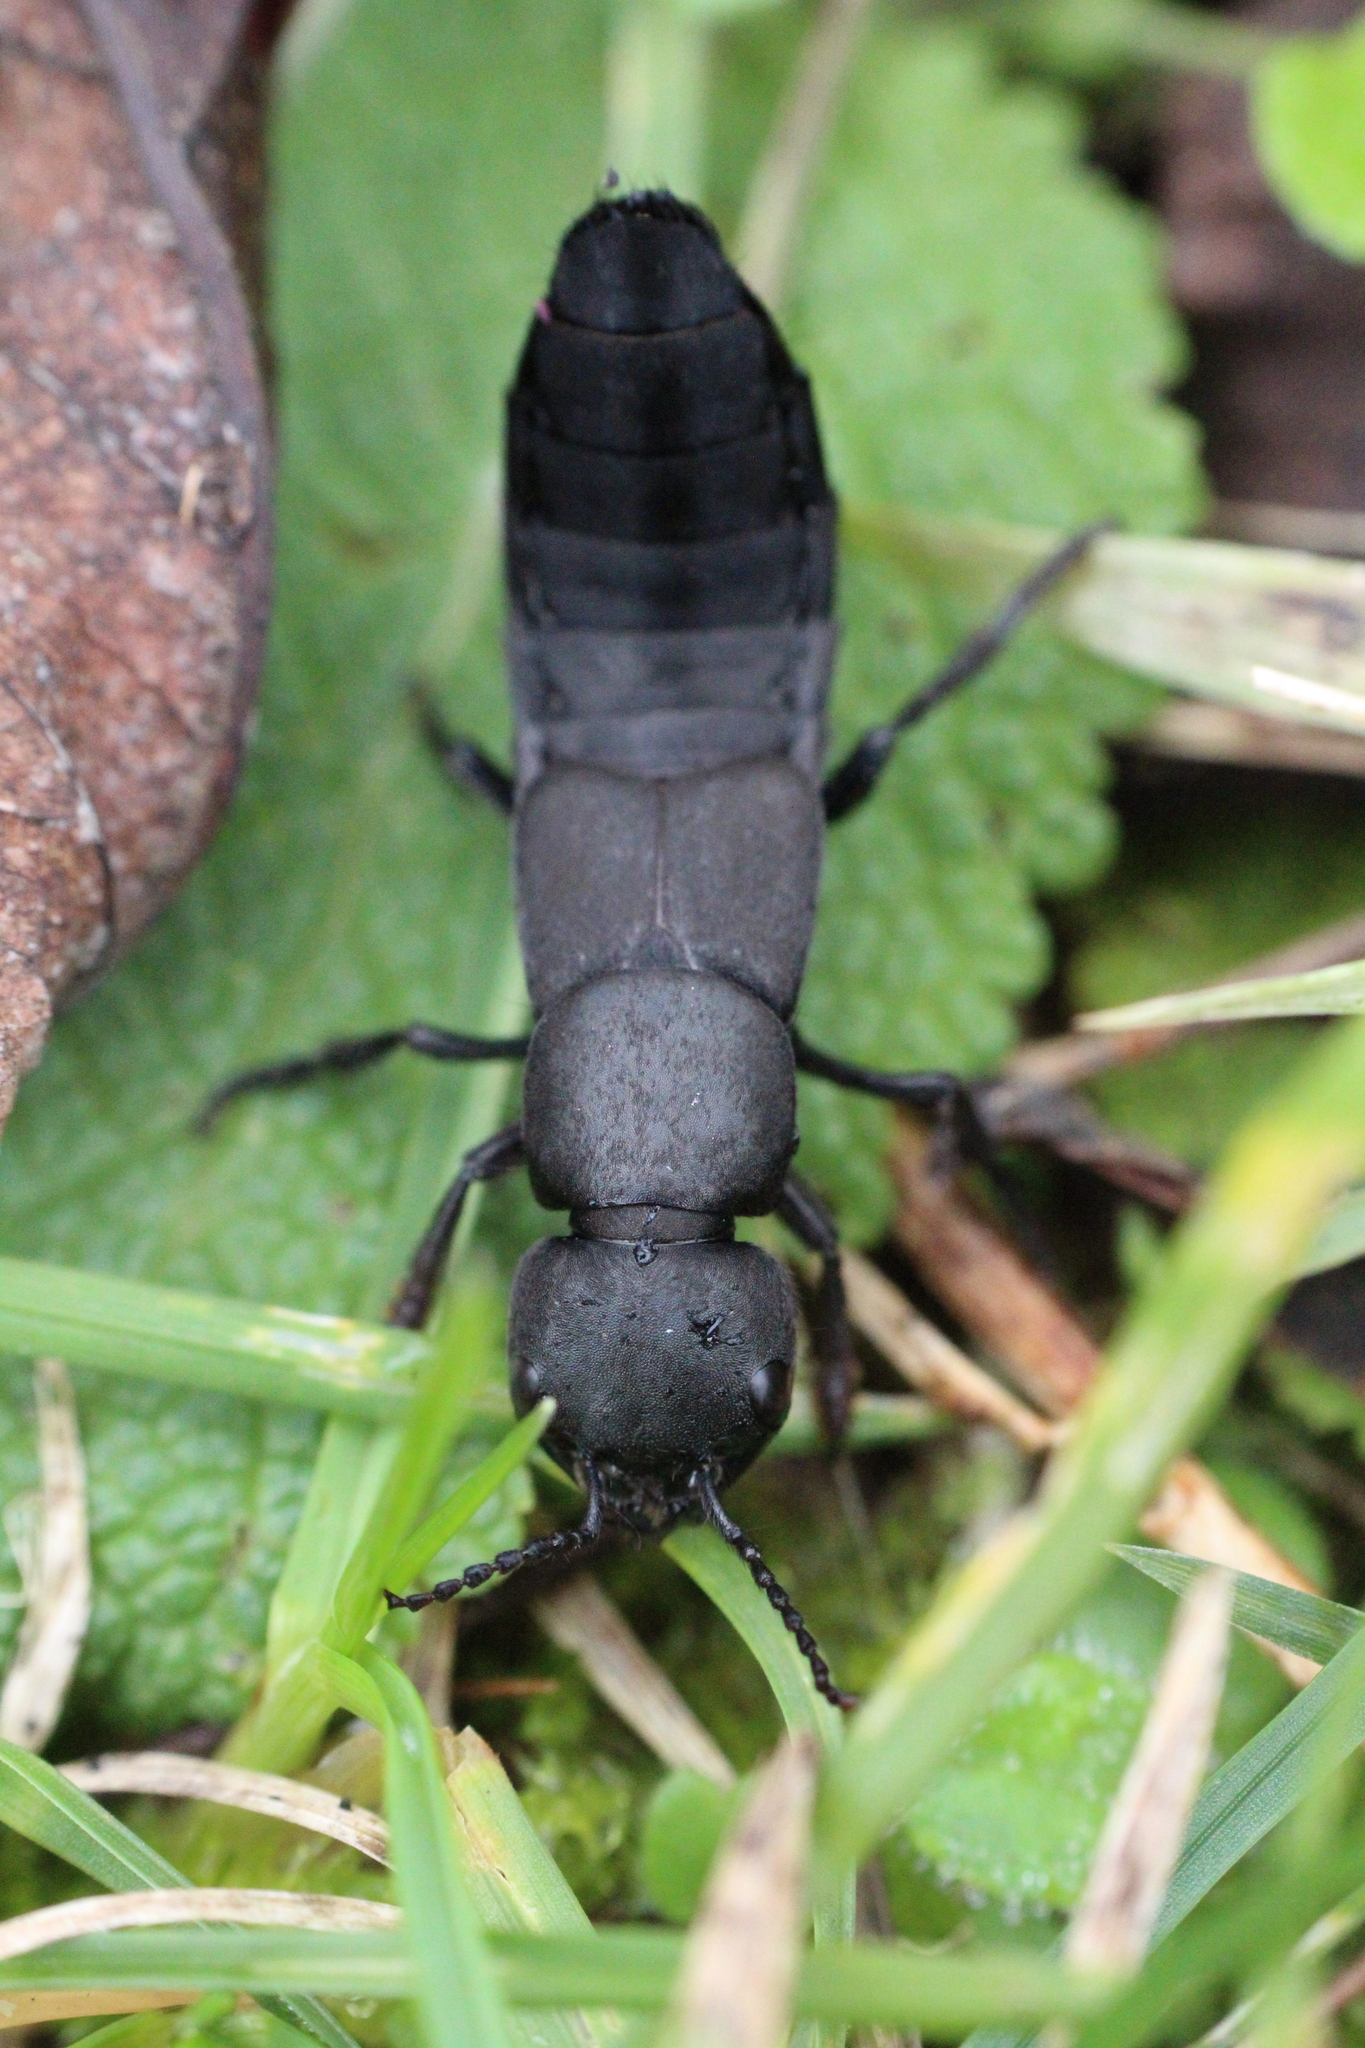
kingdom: Animalia
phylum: Arthropoda
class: Insecta
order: Coleoptera
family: Staphylinidae
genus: Ocypus
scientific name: Ocypus olens
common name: Devil's coach-horse
